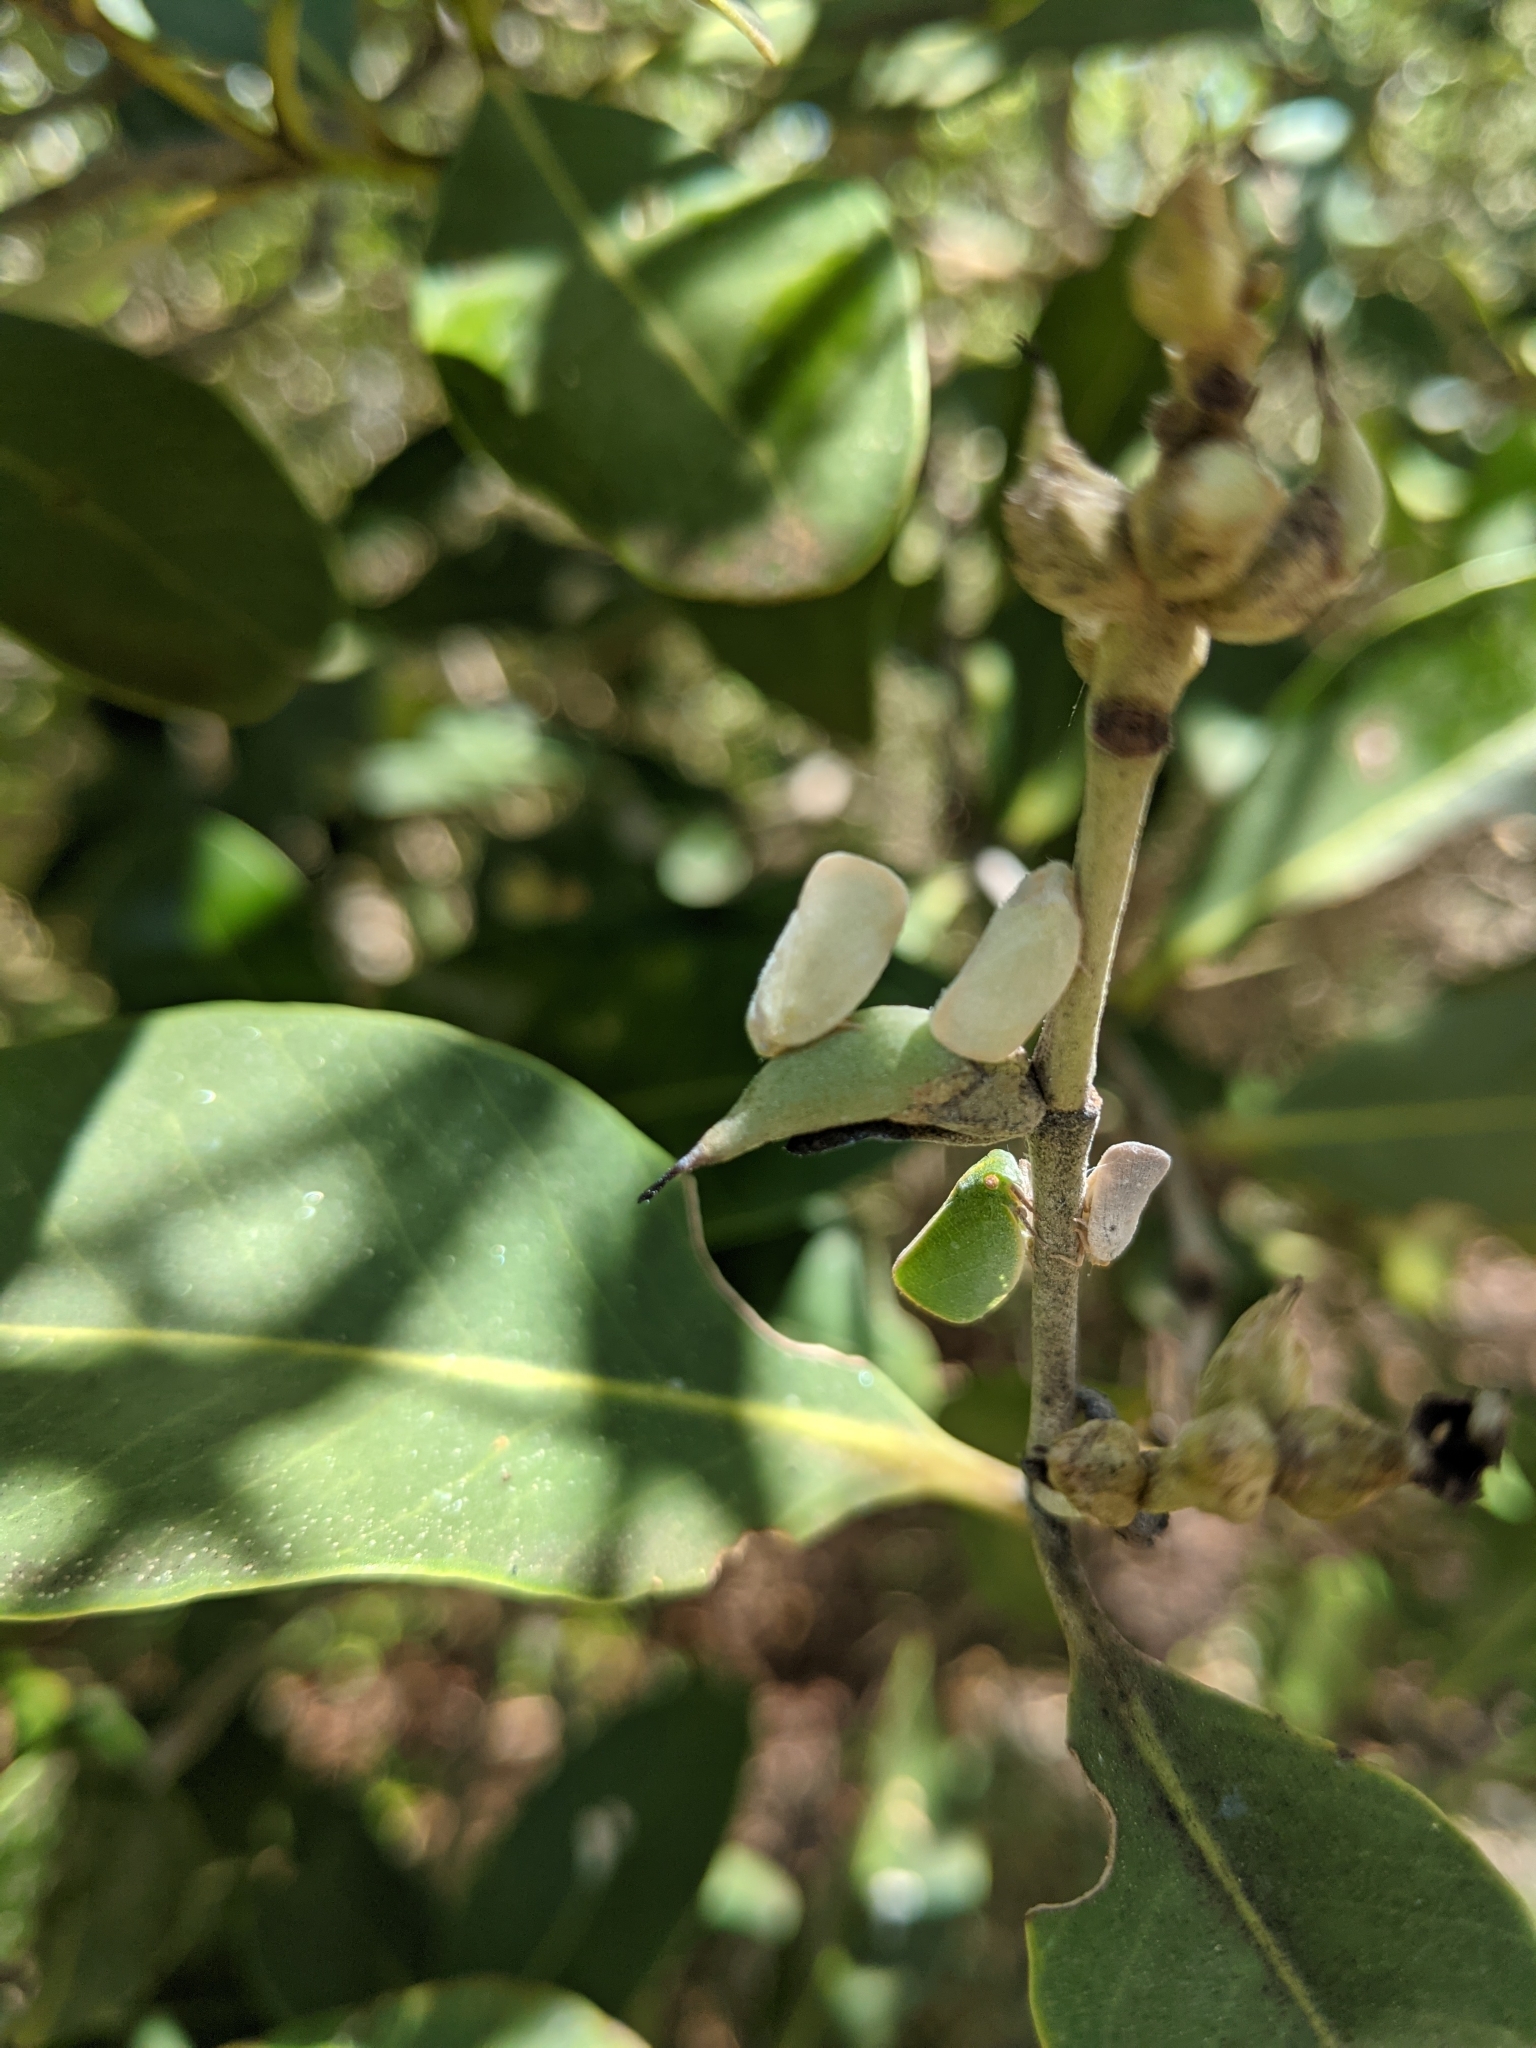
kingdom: Animalia
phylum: Arthropoda
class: Insecta
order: Hemiptera
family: Flatidae
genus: Metcalfa
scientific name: Metcalfa pruinosa
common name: Citrus flatid planthopper
